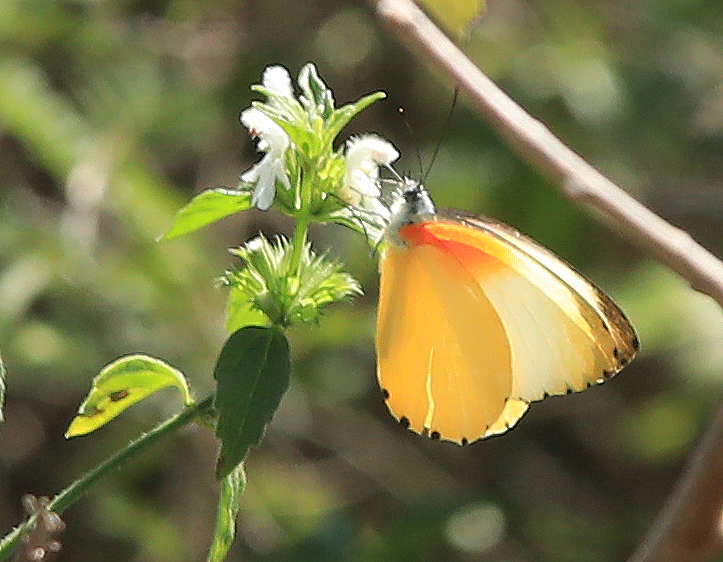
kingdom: Animalia
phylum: Arthropoda
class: Insecta
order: Lepidoptera
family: Pieridae
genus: Mylothris
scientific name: Mylothris agathina
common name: Eastern dotted border
